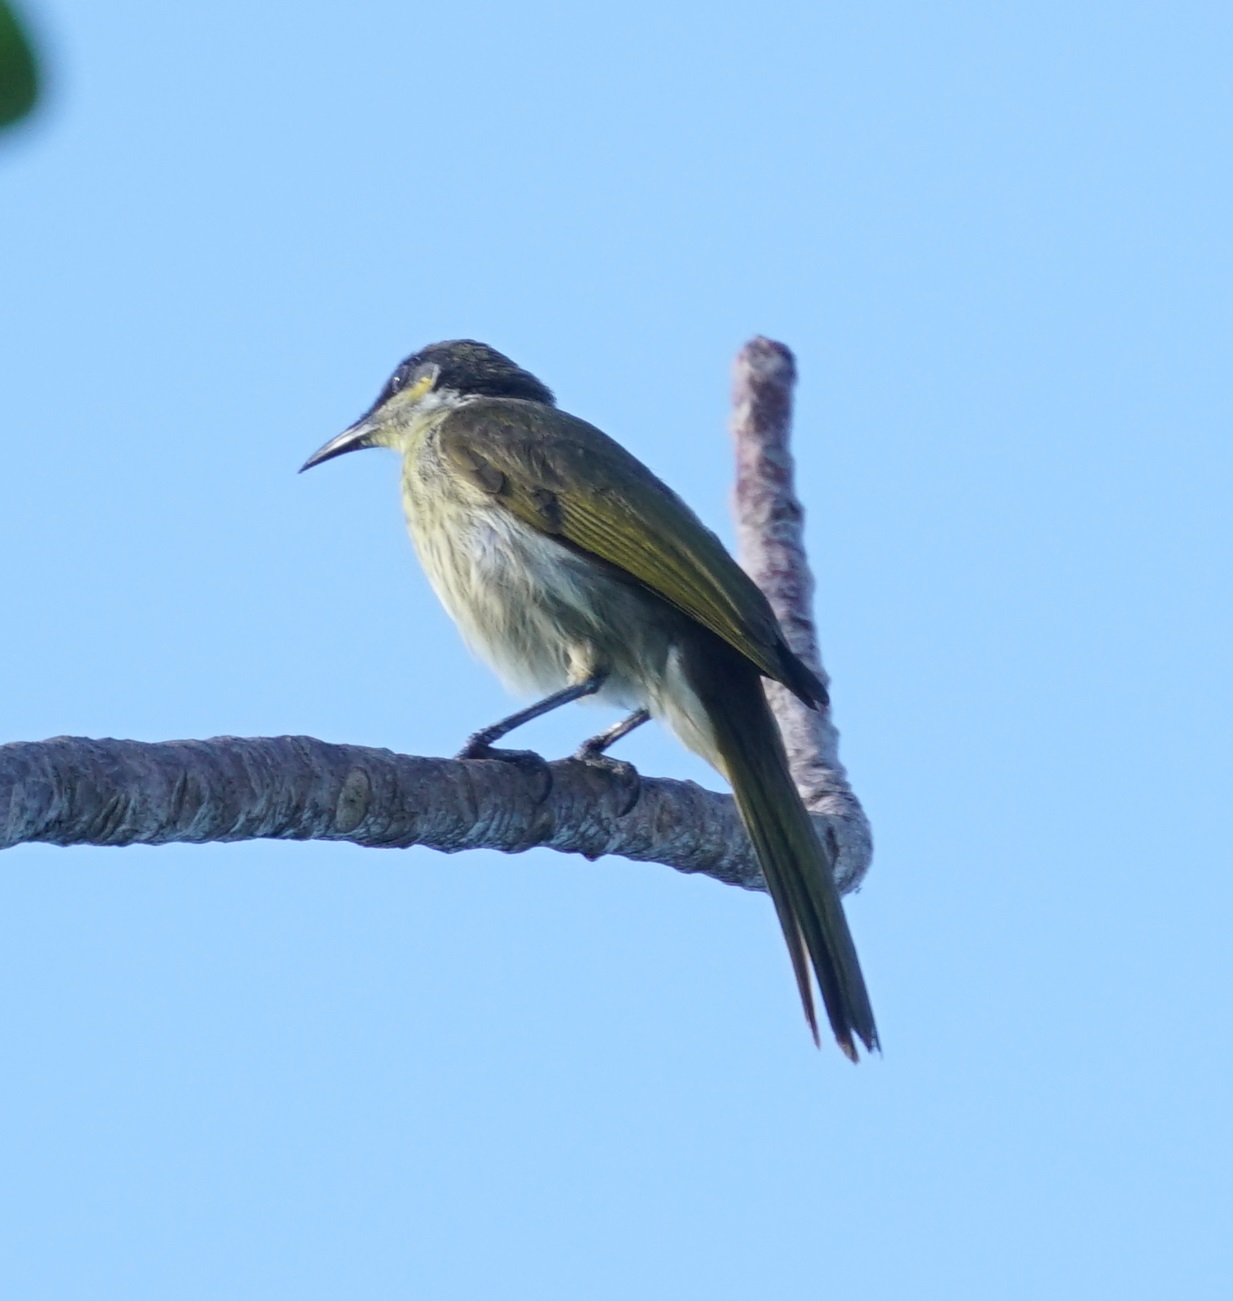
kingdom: Animalia
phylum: Chordata
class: Aves
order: Passeriformes
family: Meliphagidae
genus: Gavicalis
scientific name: Gavicalis versicolor
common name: Varied honeyeater
